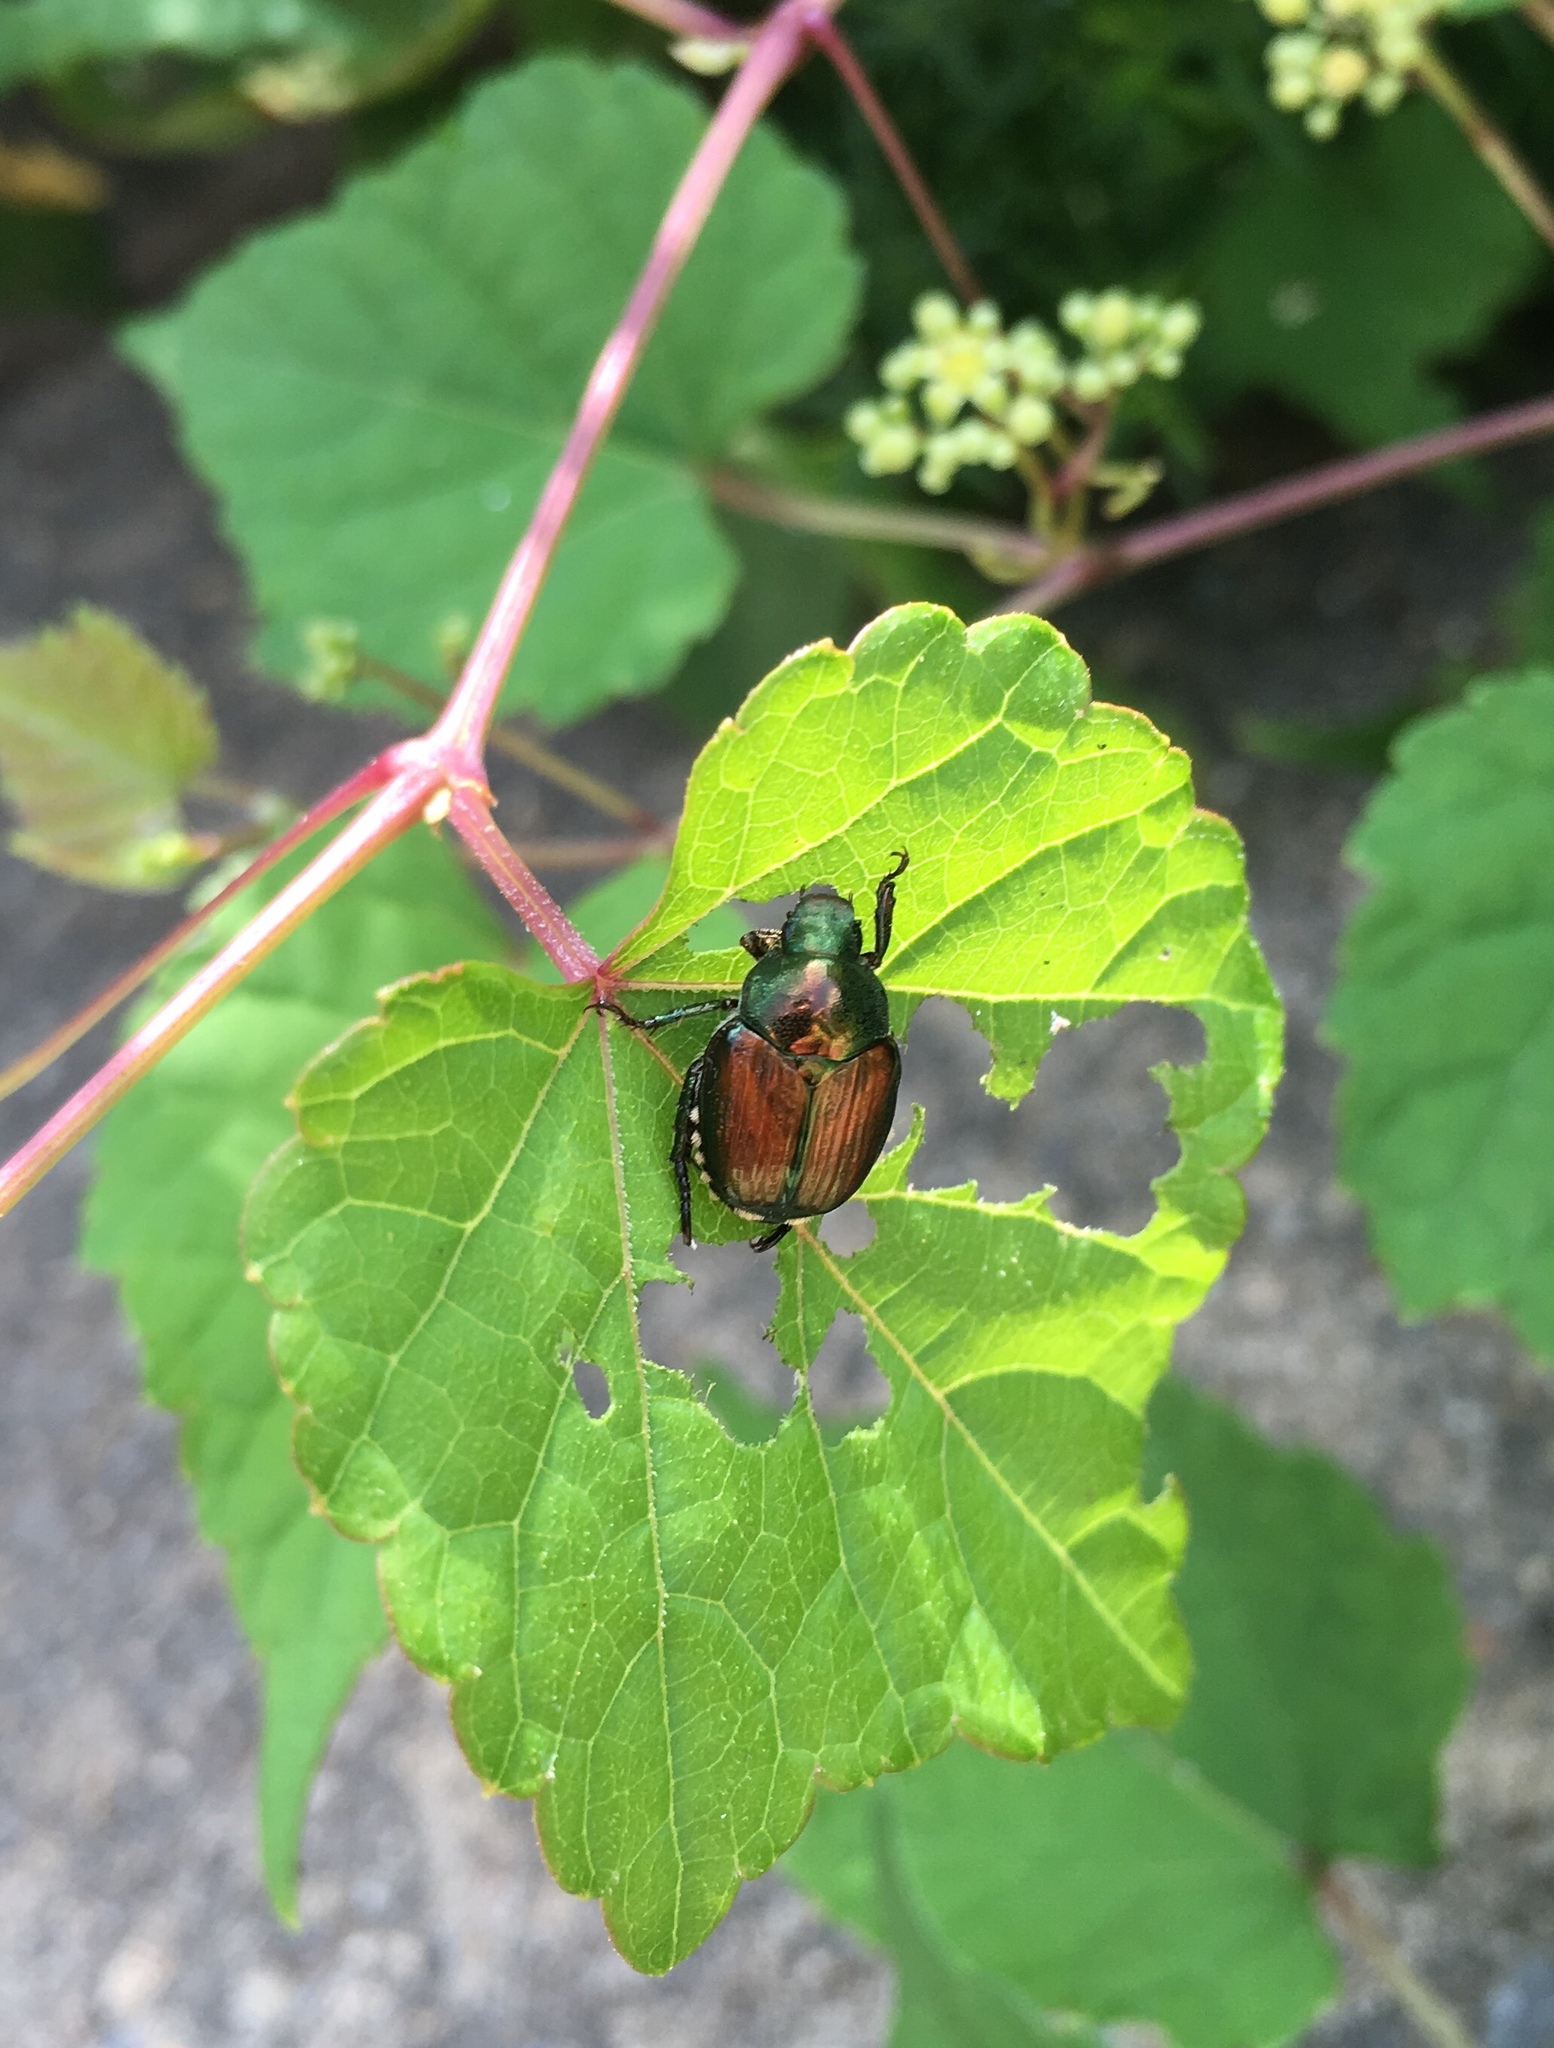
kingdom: Animalia
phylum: Arthropoda
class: Insecta
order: Coleoptera
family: Scarabaeidae
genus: Popillia
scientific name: Popillia japonica
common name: Japanese beetle
